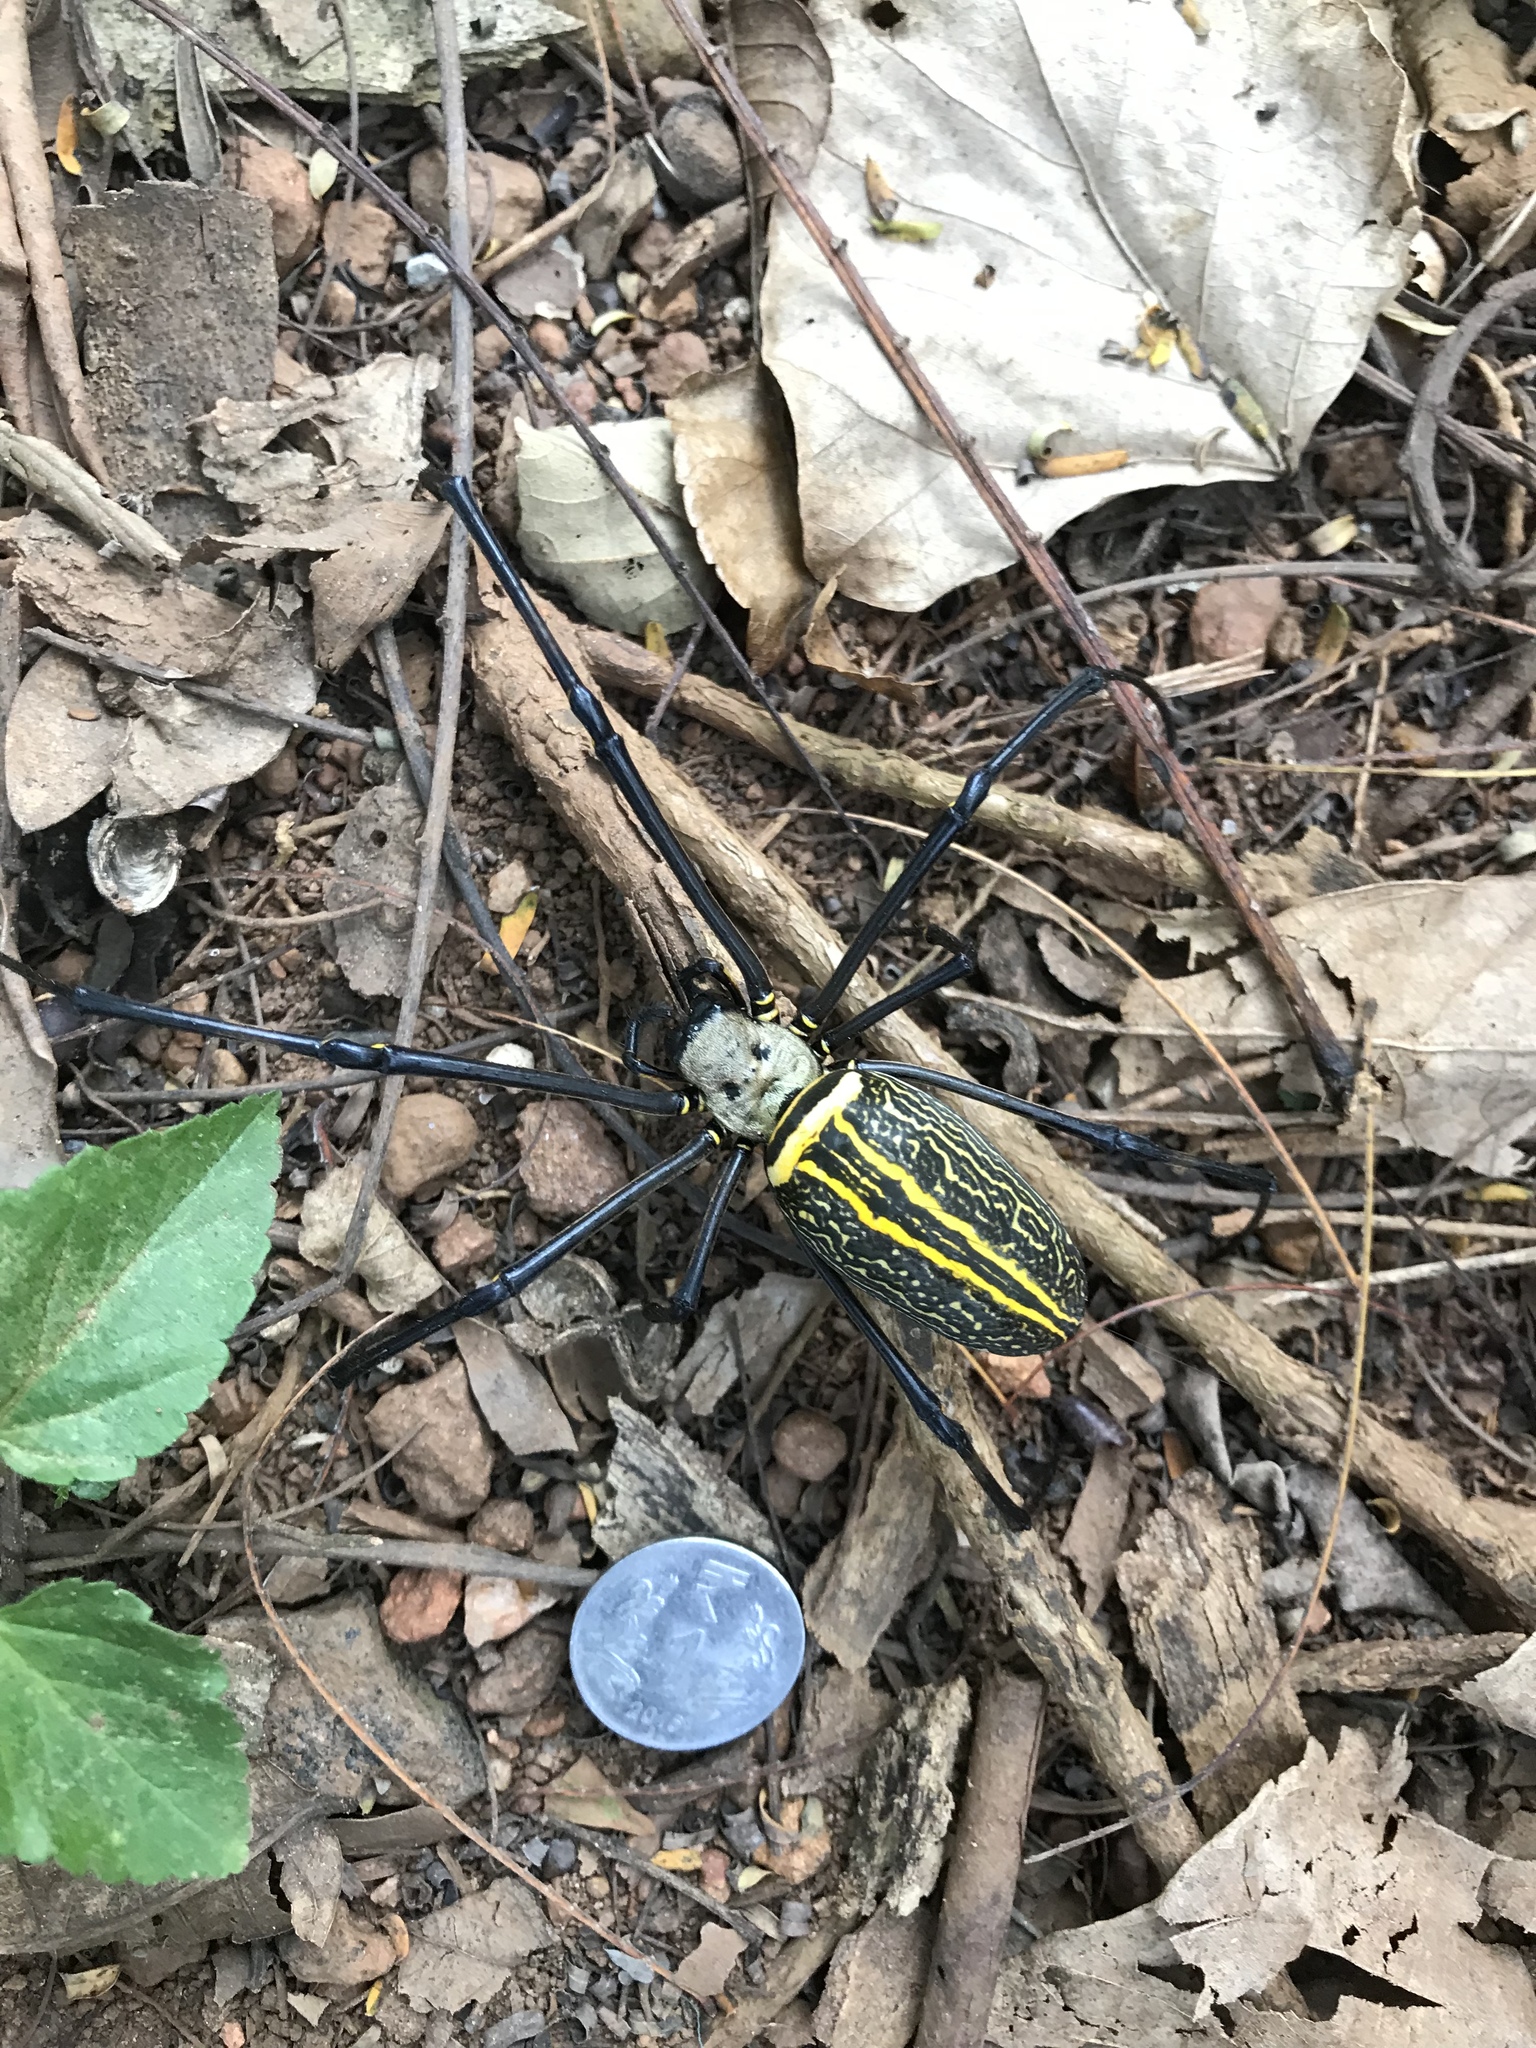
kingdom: Animalia
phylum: Arthropoda
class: Arachnida
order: Araneae
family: Araneidae
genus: Nephila
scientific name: Nephila pilipes
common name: Giant golden orb weaver
